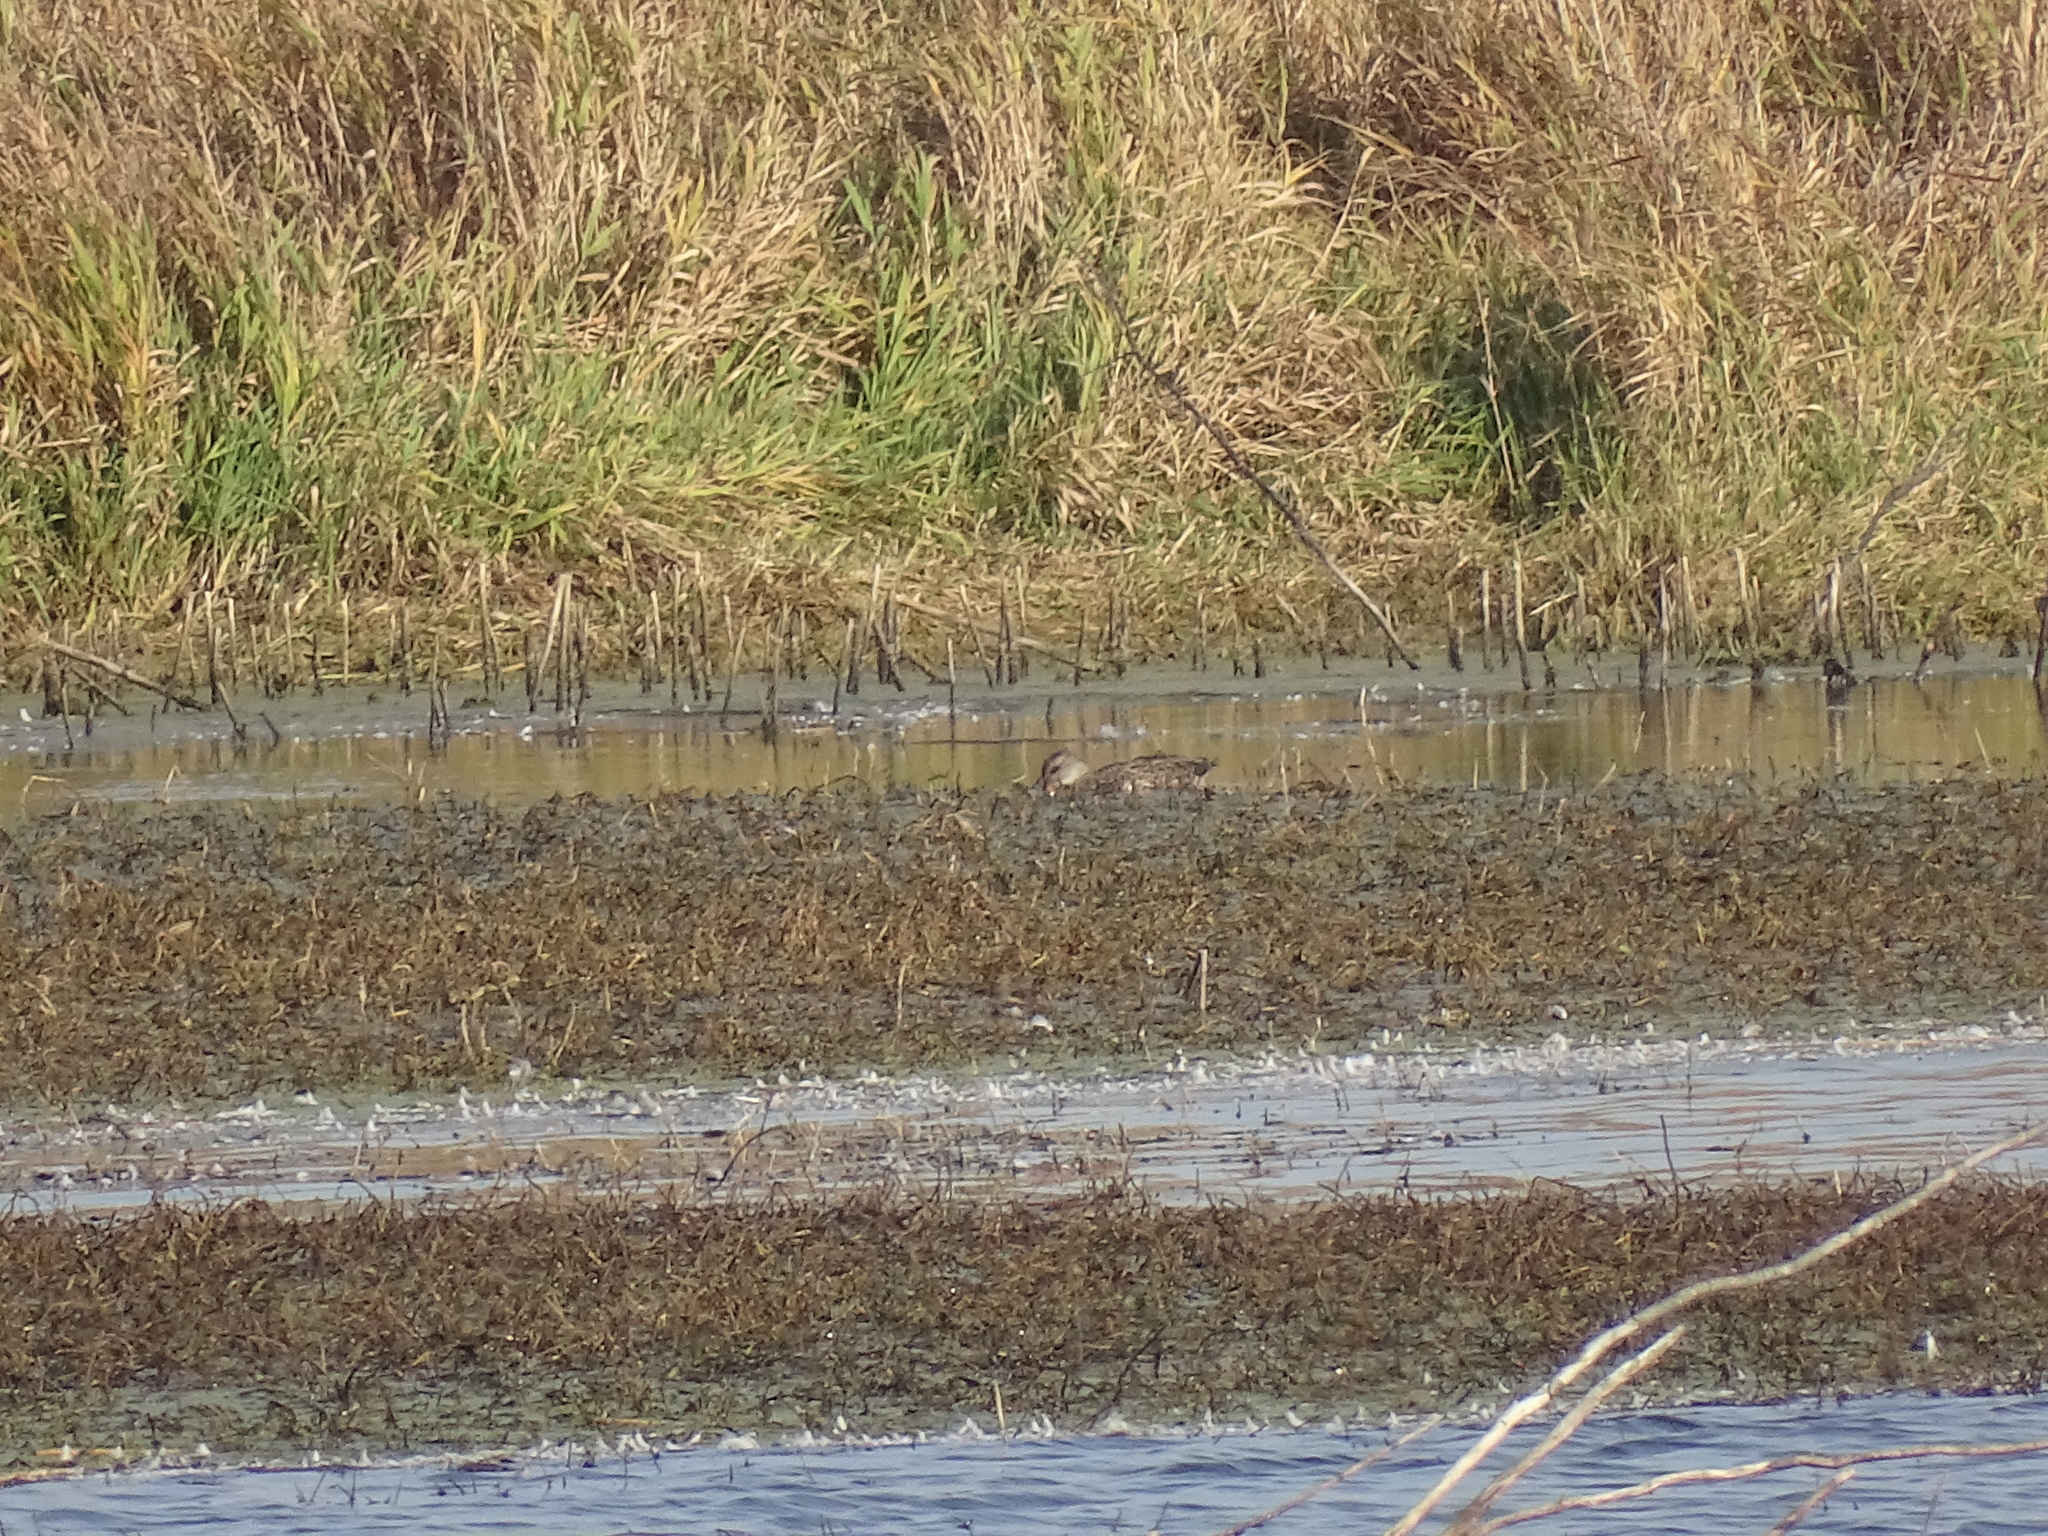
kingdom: Animalia
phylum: Chordata
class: Aves
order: Anseriformes
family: Anatidae
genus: Mareca
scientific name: Mareca strepera
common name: Gadwall
